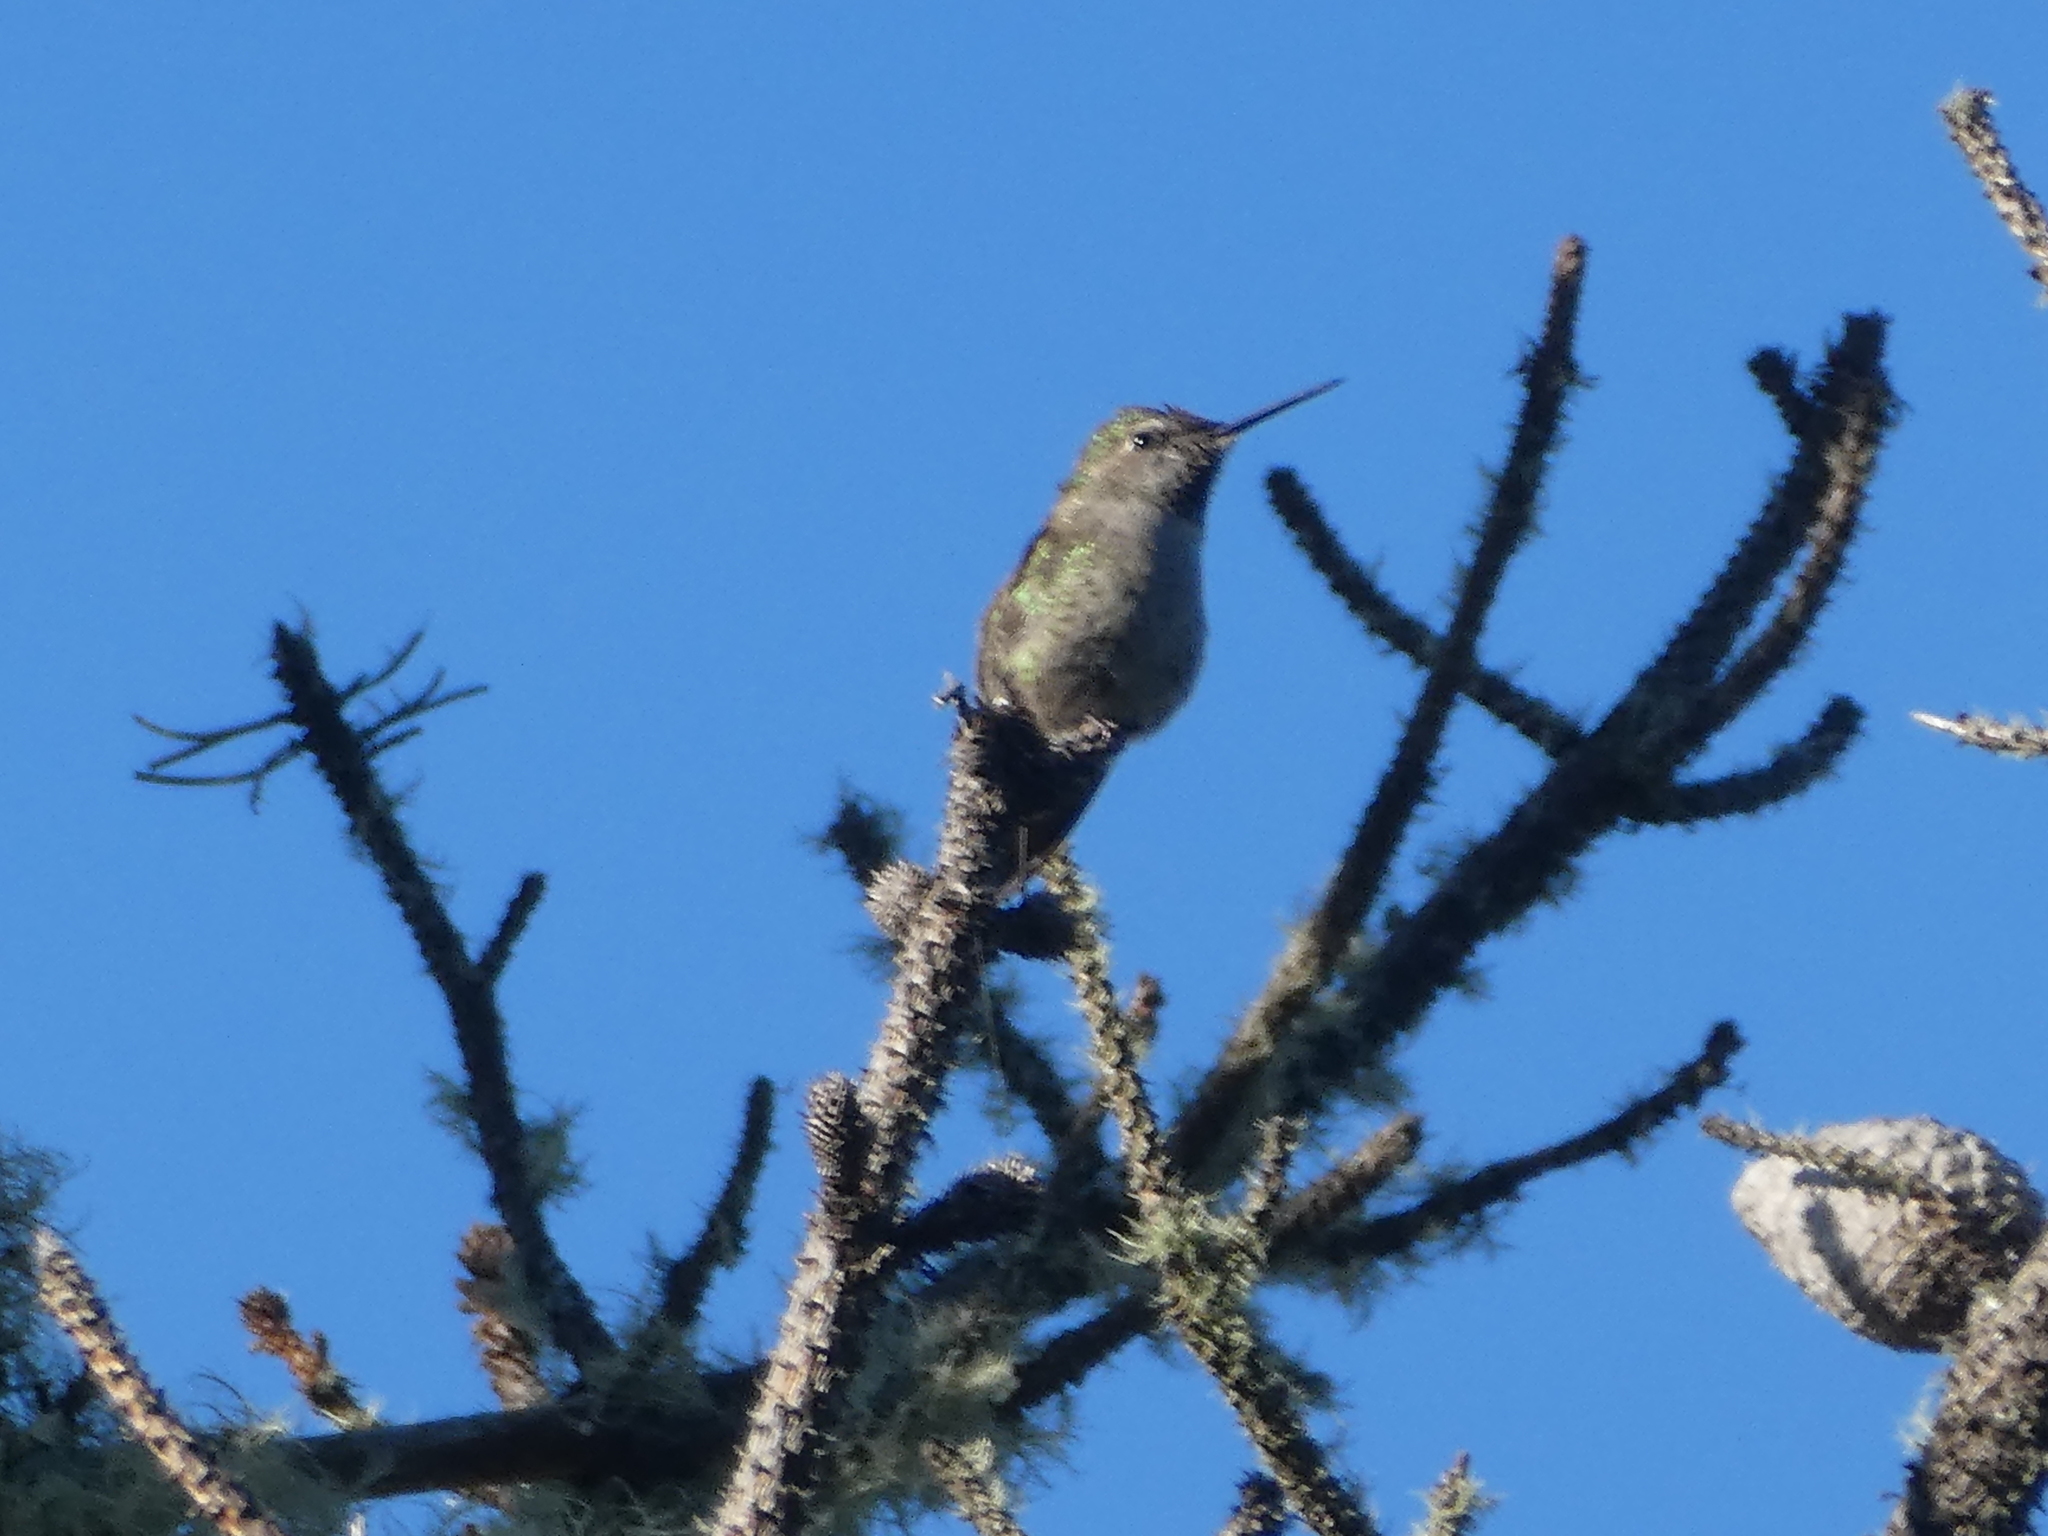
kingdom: Animalia
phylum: Chordata
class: Aves
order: Apodiformes
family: Trochilidae
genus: Calypte
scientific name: Calypte anna
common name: Anna's hummingbird
